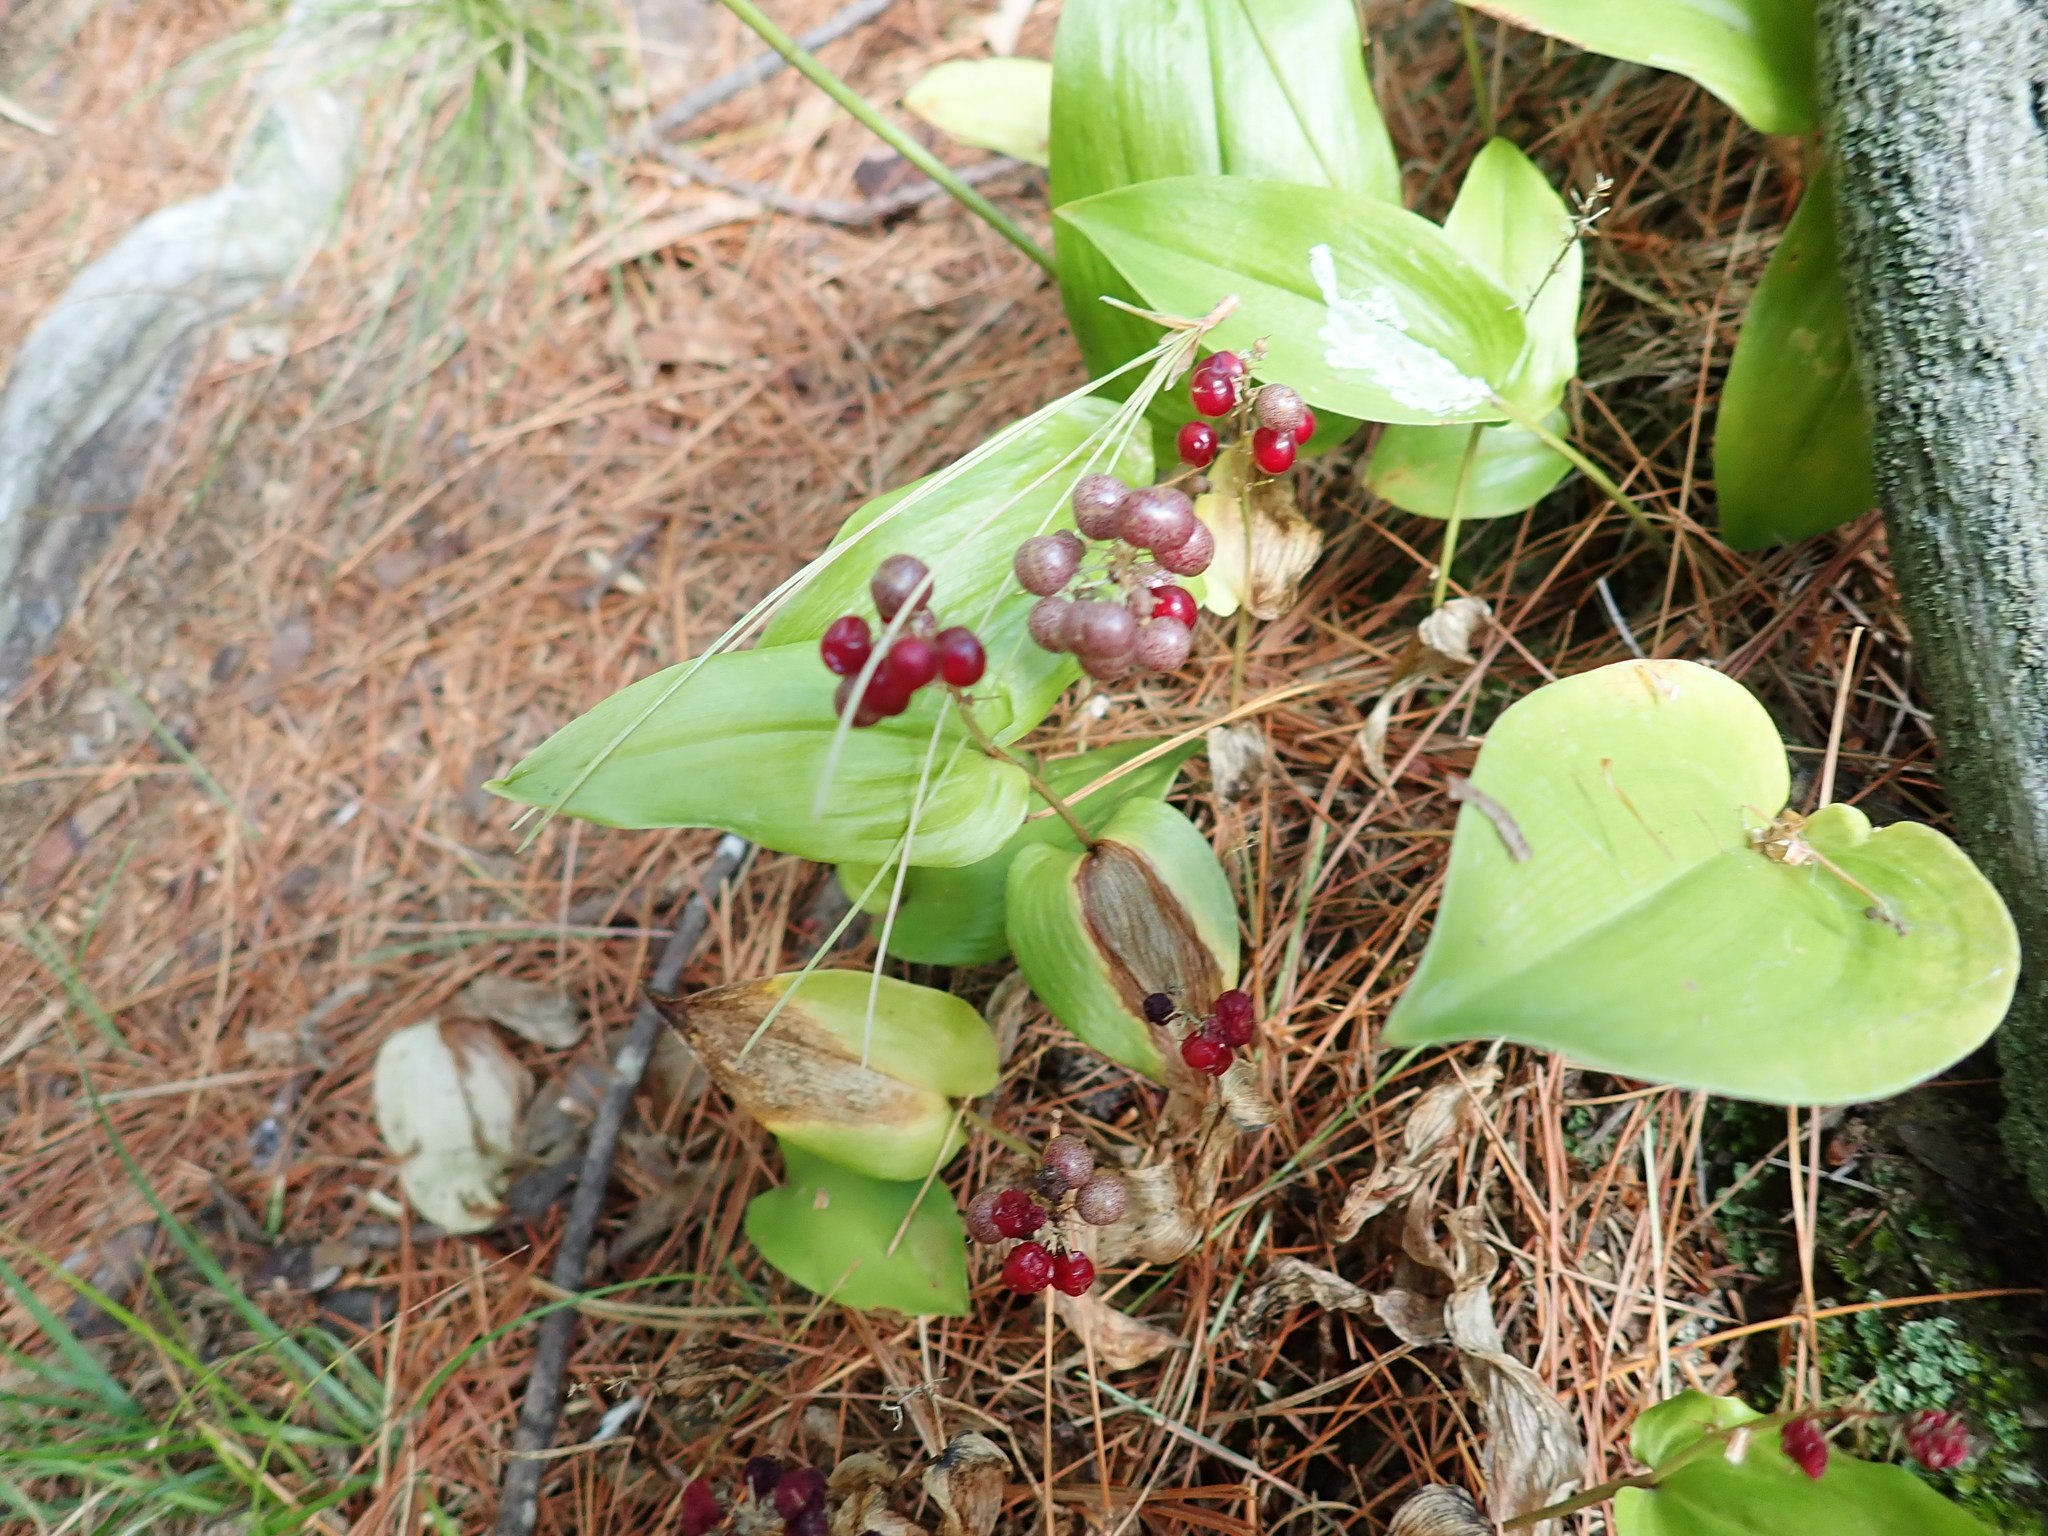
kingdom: Plantae
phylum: Tracheophyta
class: Liliopsida
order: Asparagales
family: Asparagaceae
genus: Maianthemum
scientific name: Maianthemum canadense
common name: False lily-of-the-valley
